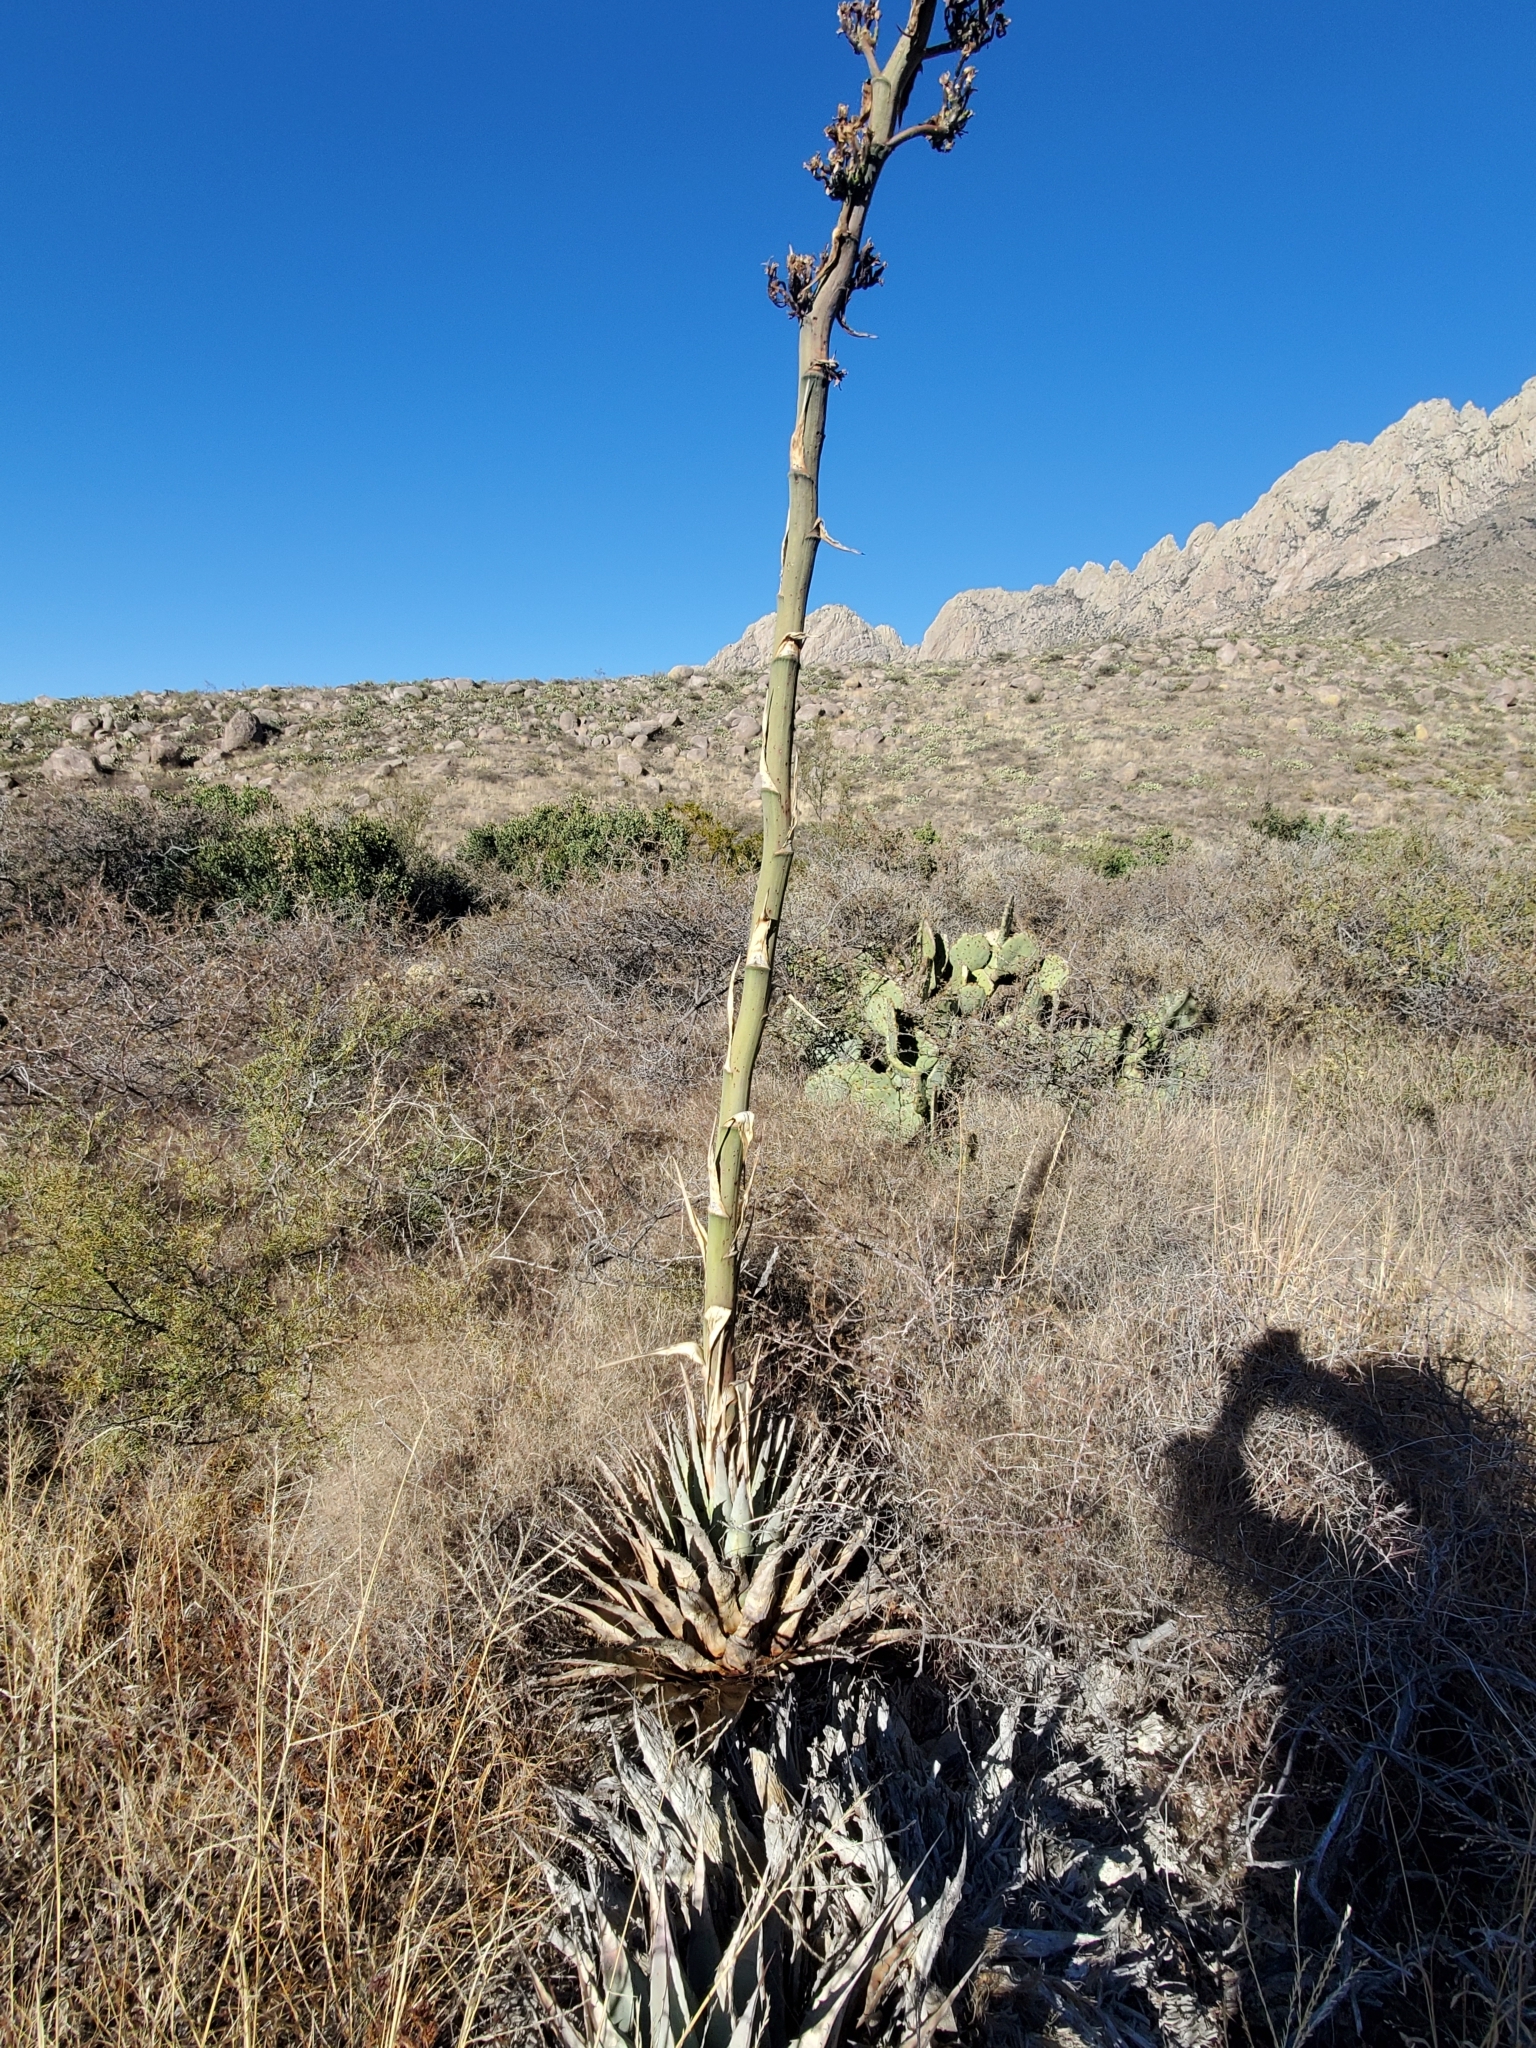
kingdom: Plantae
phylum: Tracheophyta
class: Liliopsida
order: Asparagales
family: Asparagaceae
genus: Agave
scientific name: Agave parryi
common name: Parry's agave
